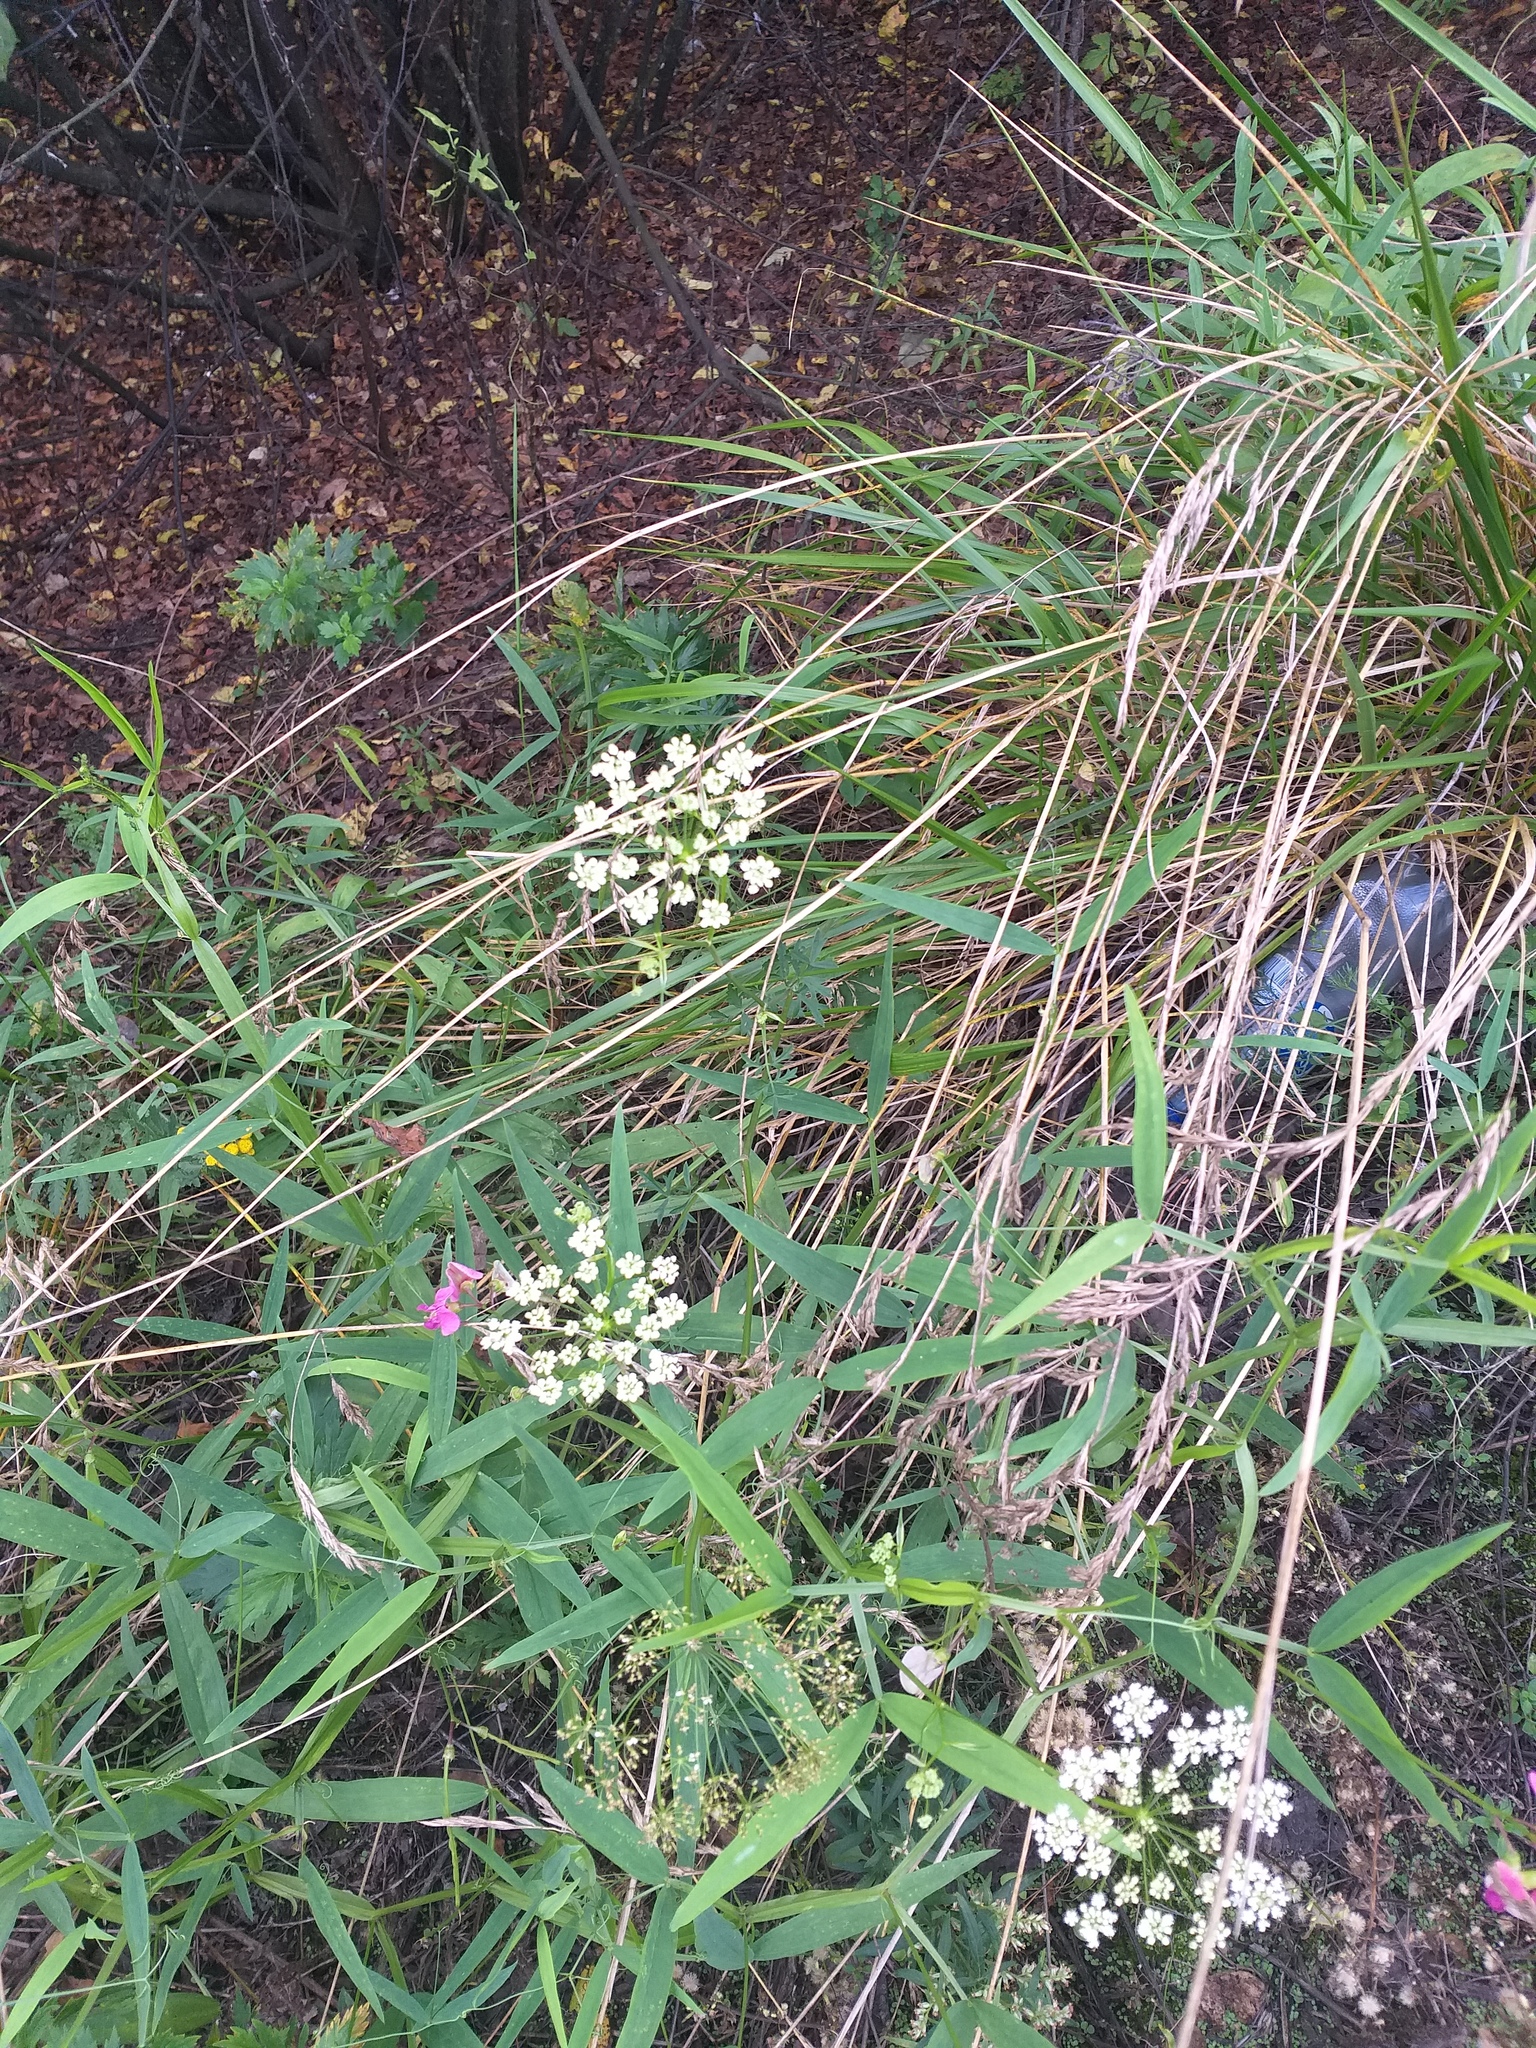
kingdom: Plantae
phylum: Tracheophyta
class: Magnoliopsida
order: Apiales
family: Apiaceae
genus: Pimpinella
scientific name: Pimpinella saxifraga
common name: Burnet-saxifrage
